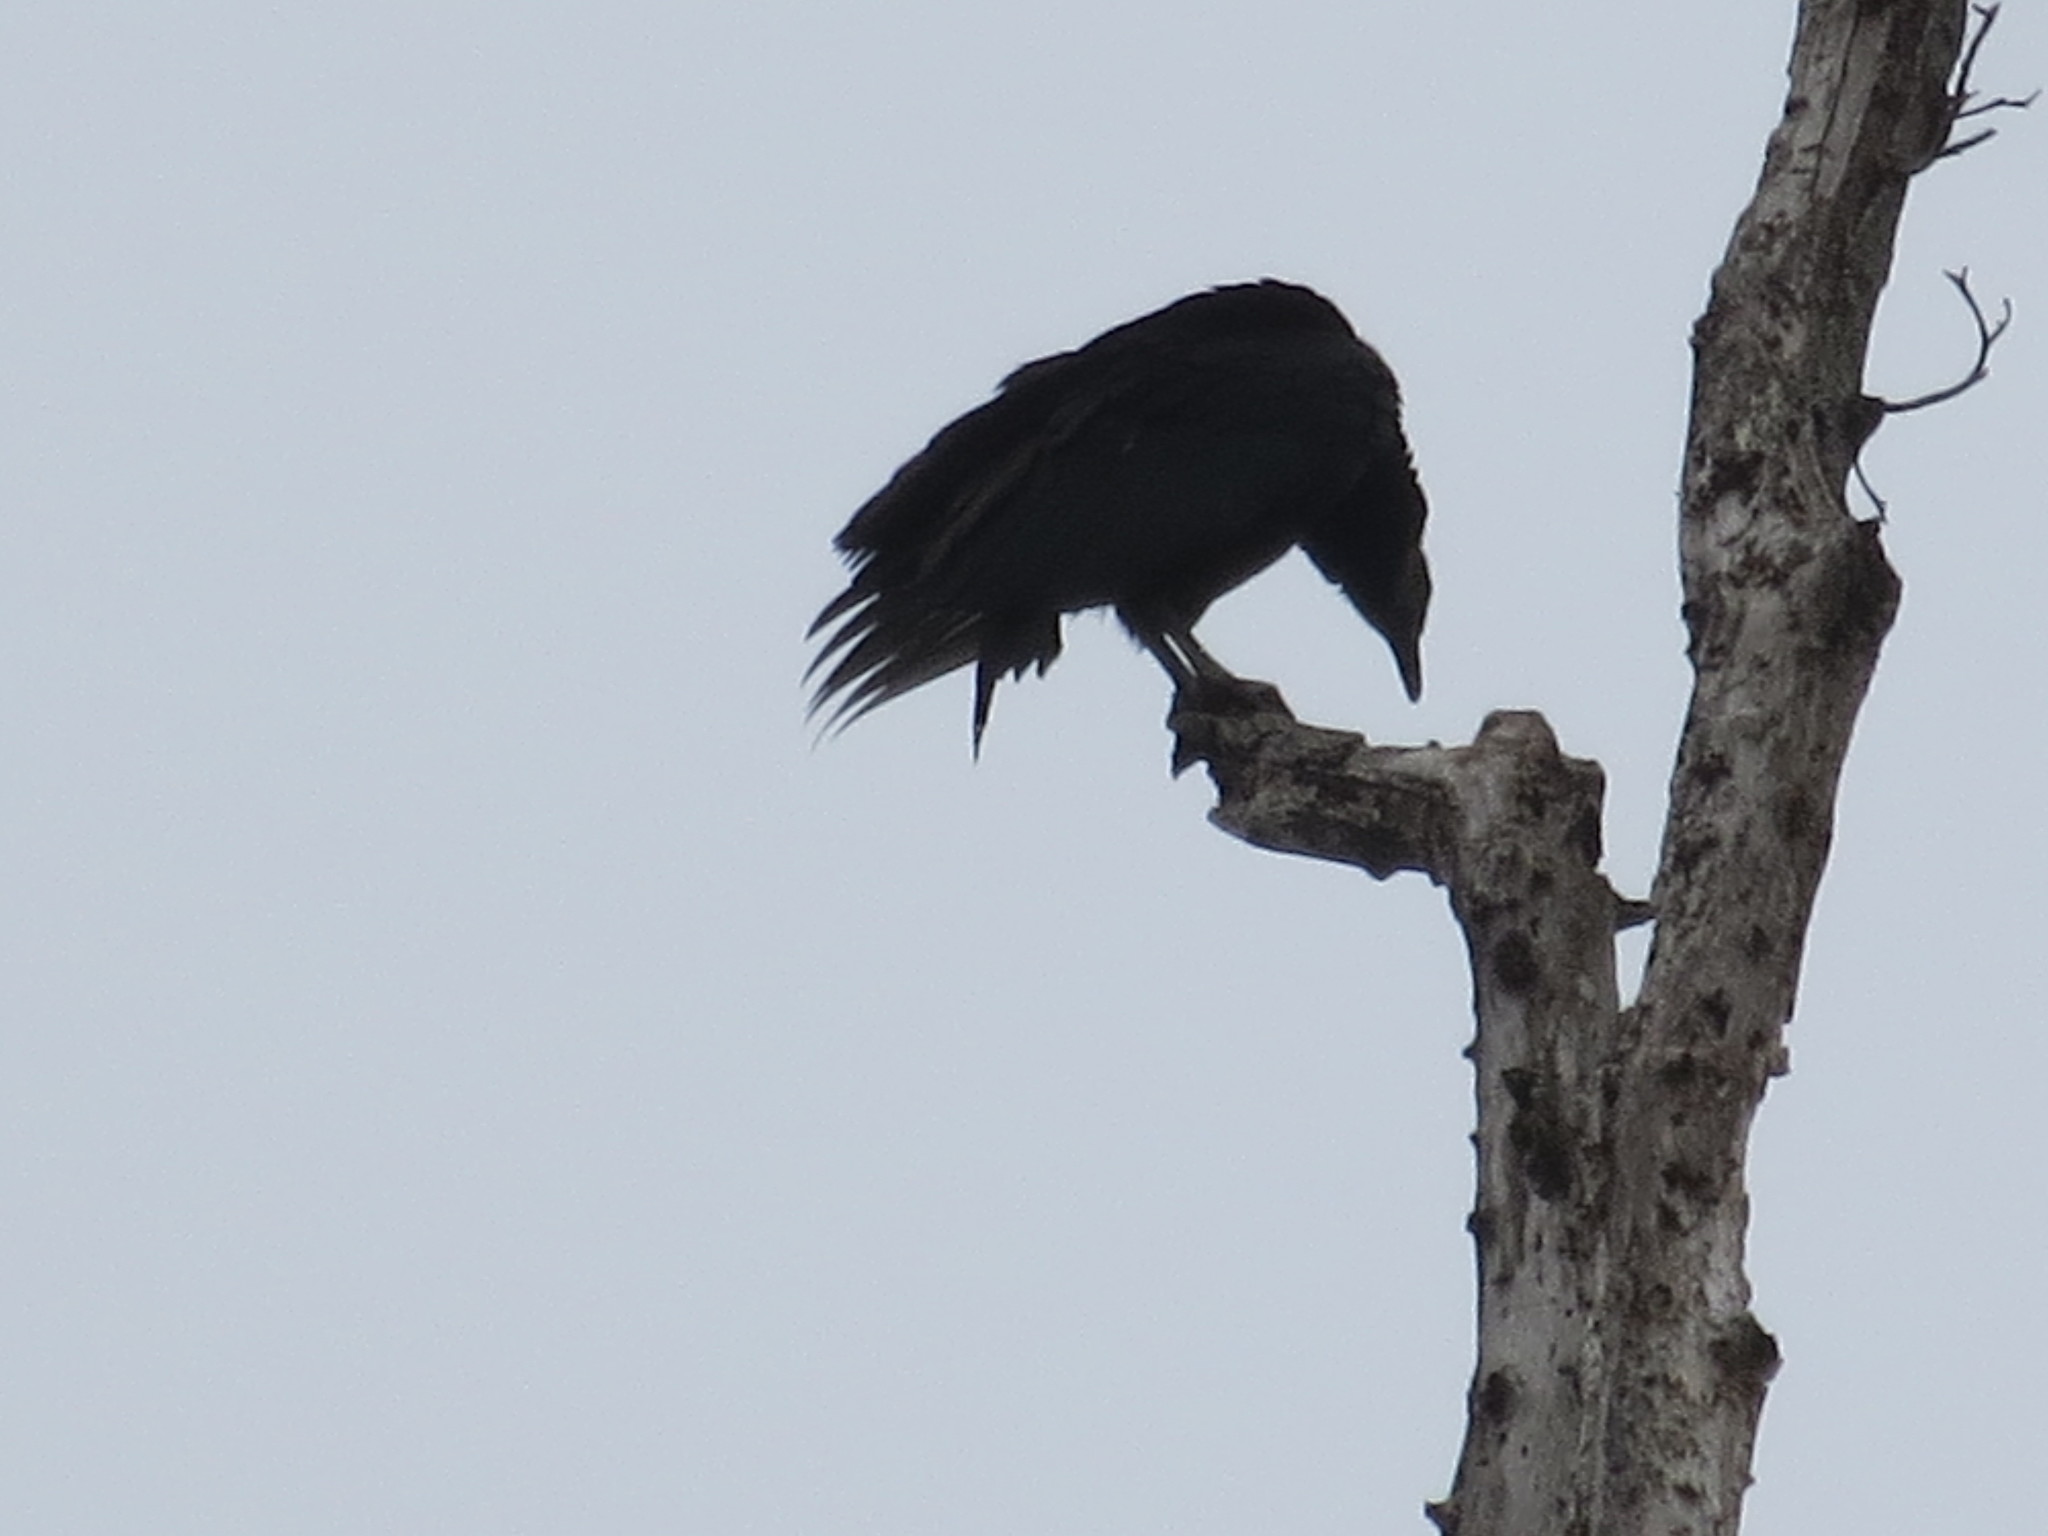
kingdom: Animalia
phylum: Chordata
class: Aves
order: Accipitriformes
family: Cathartidae
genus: Coragyps
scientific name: Coragyps atratus
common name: Black vulture
